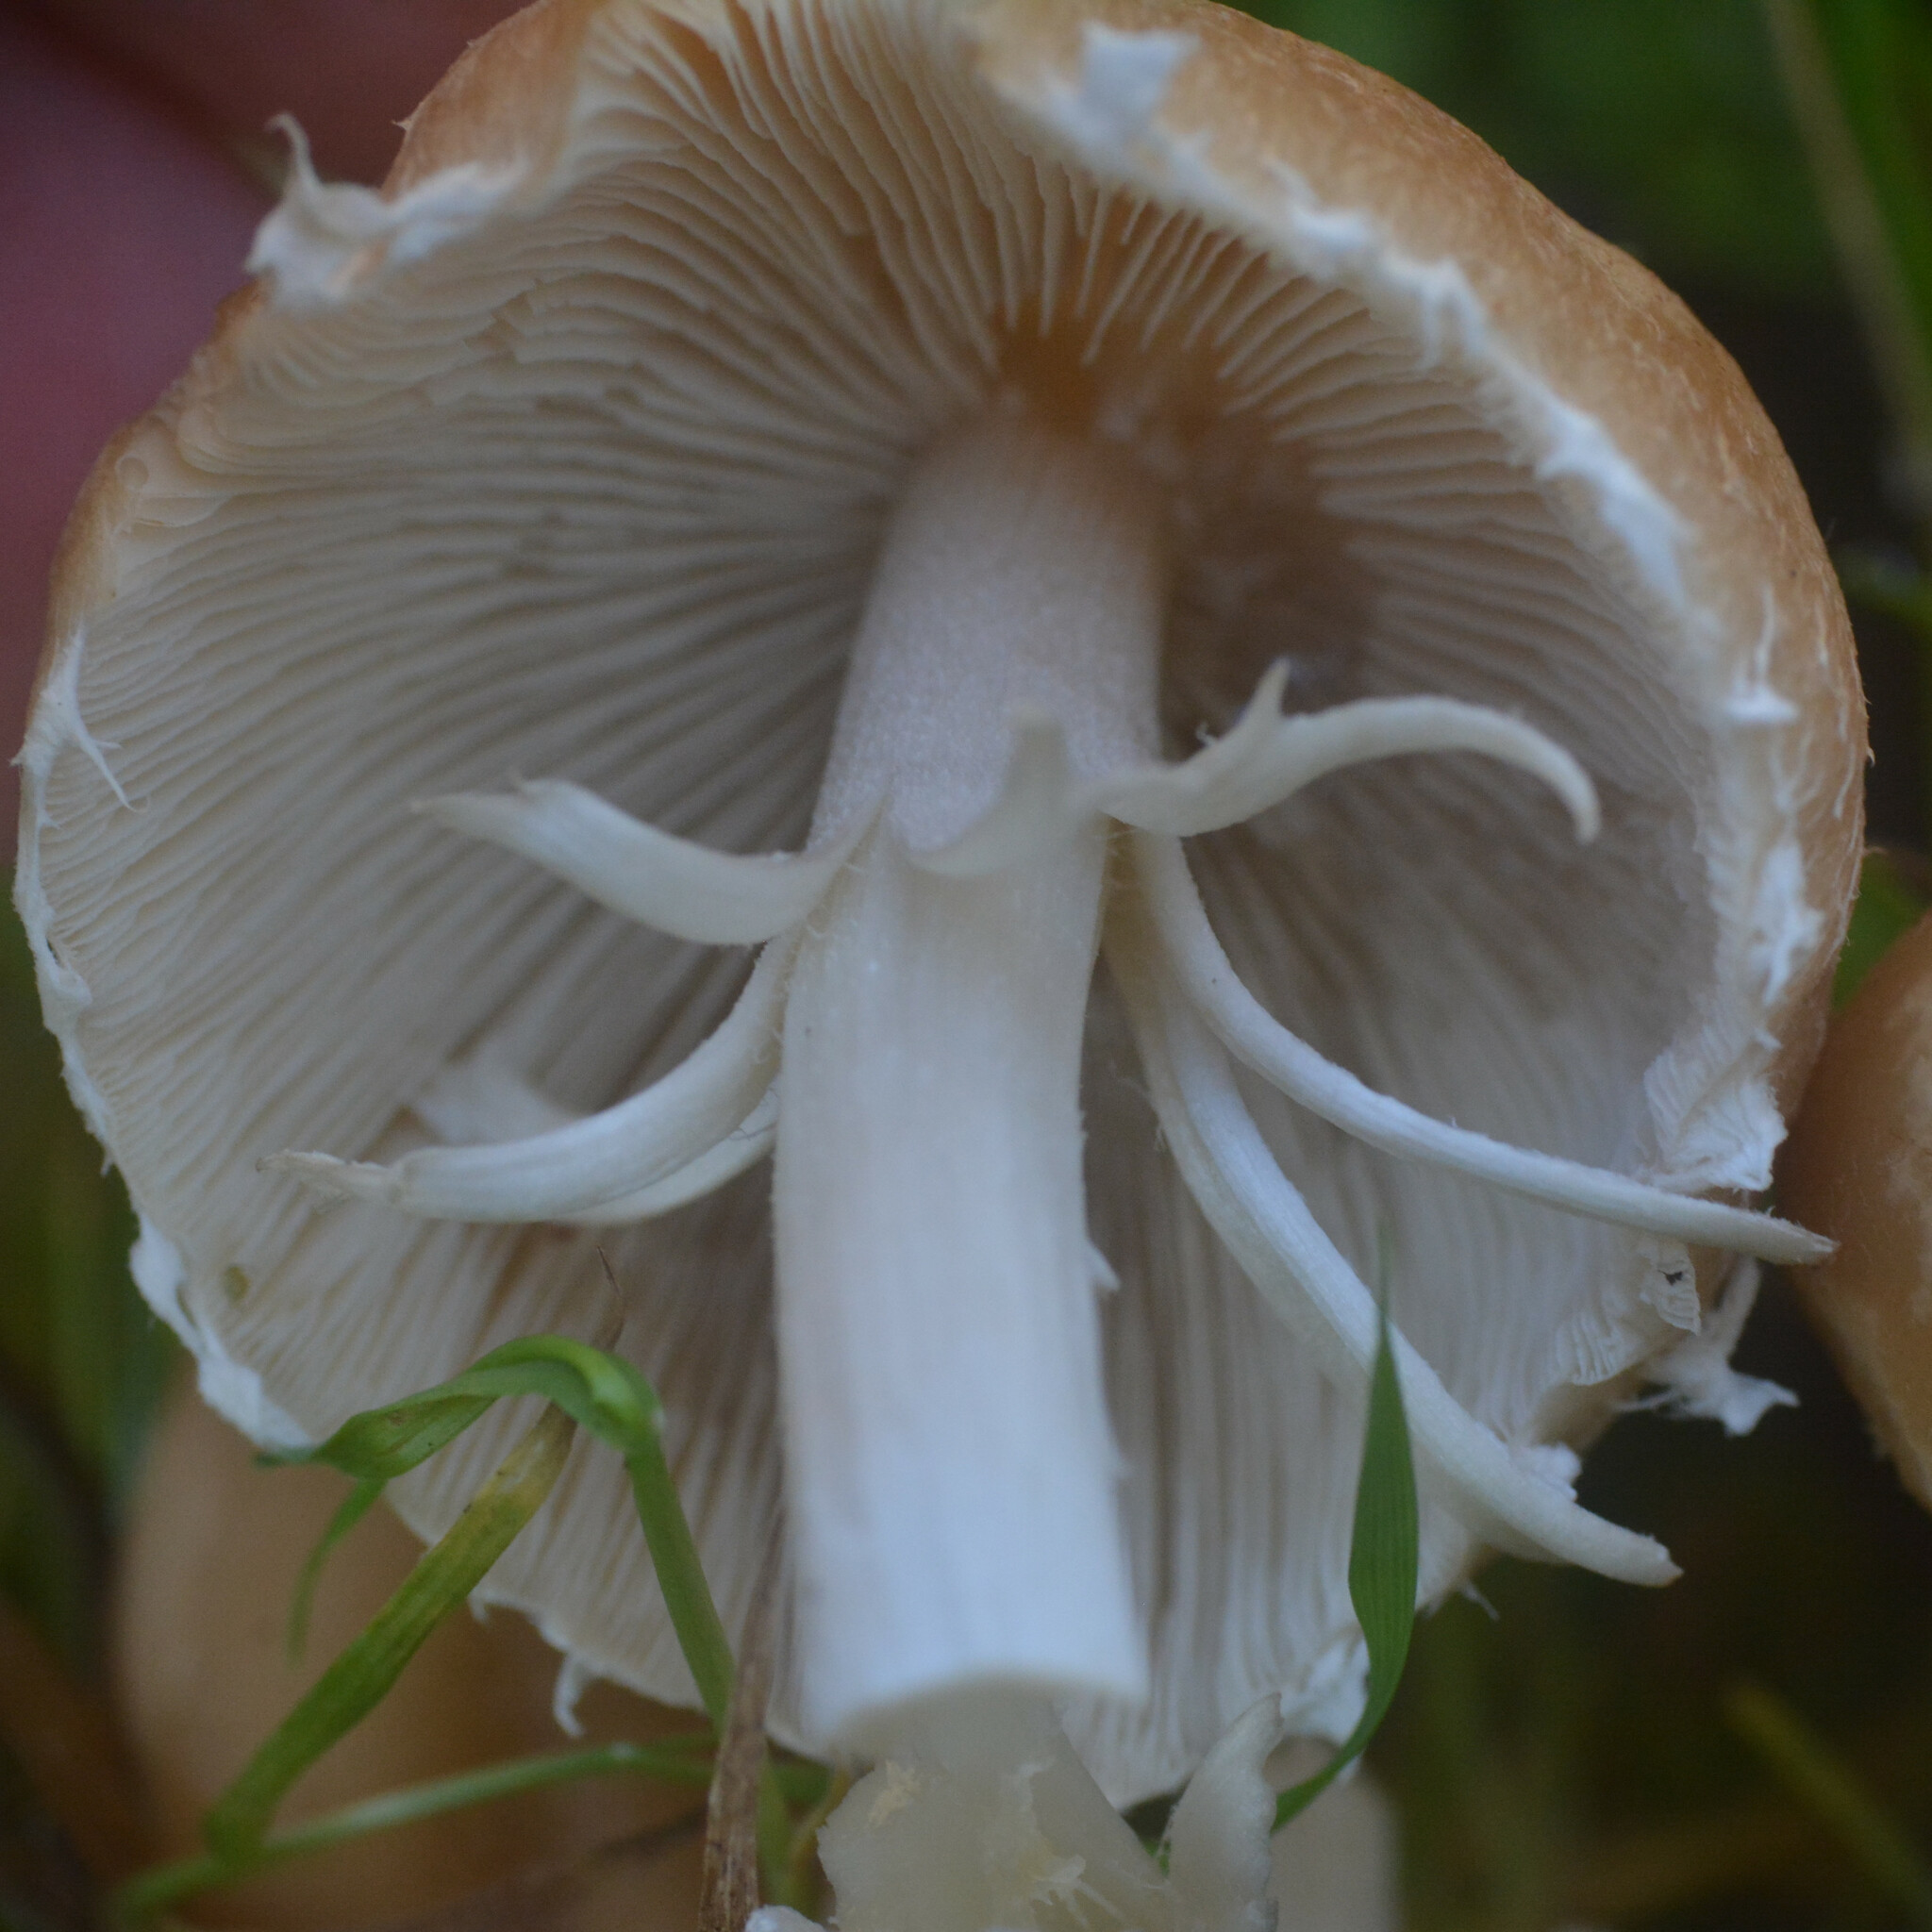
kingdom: Fungi
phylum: Basidiomycota
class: Agaricomycetes
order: Agaricales
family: Psathyrellaceae
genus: Candolleomyces
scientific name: Candolleomyces candolleanus
